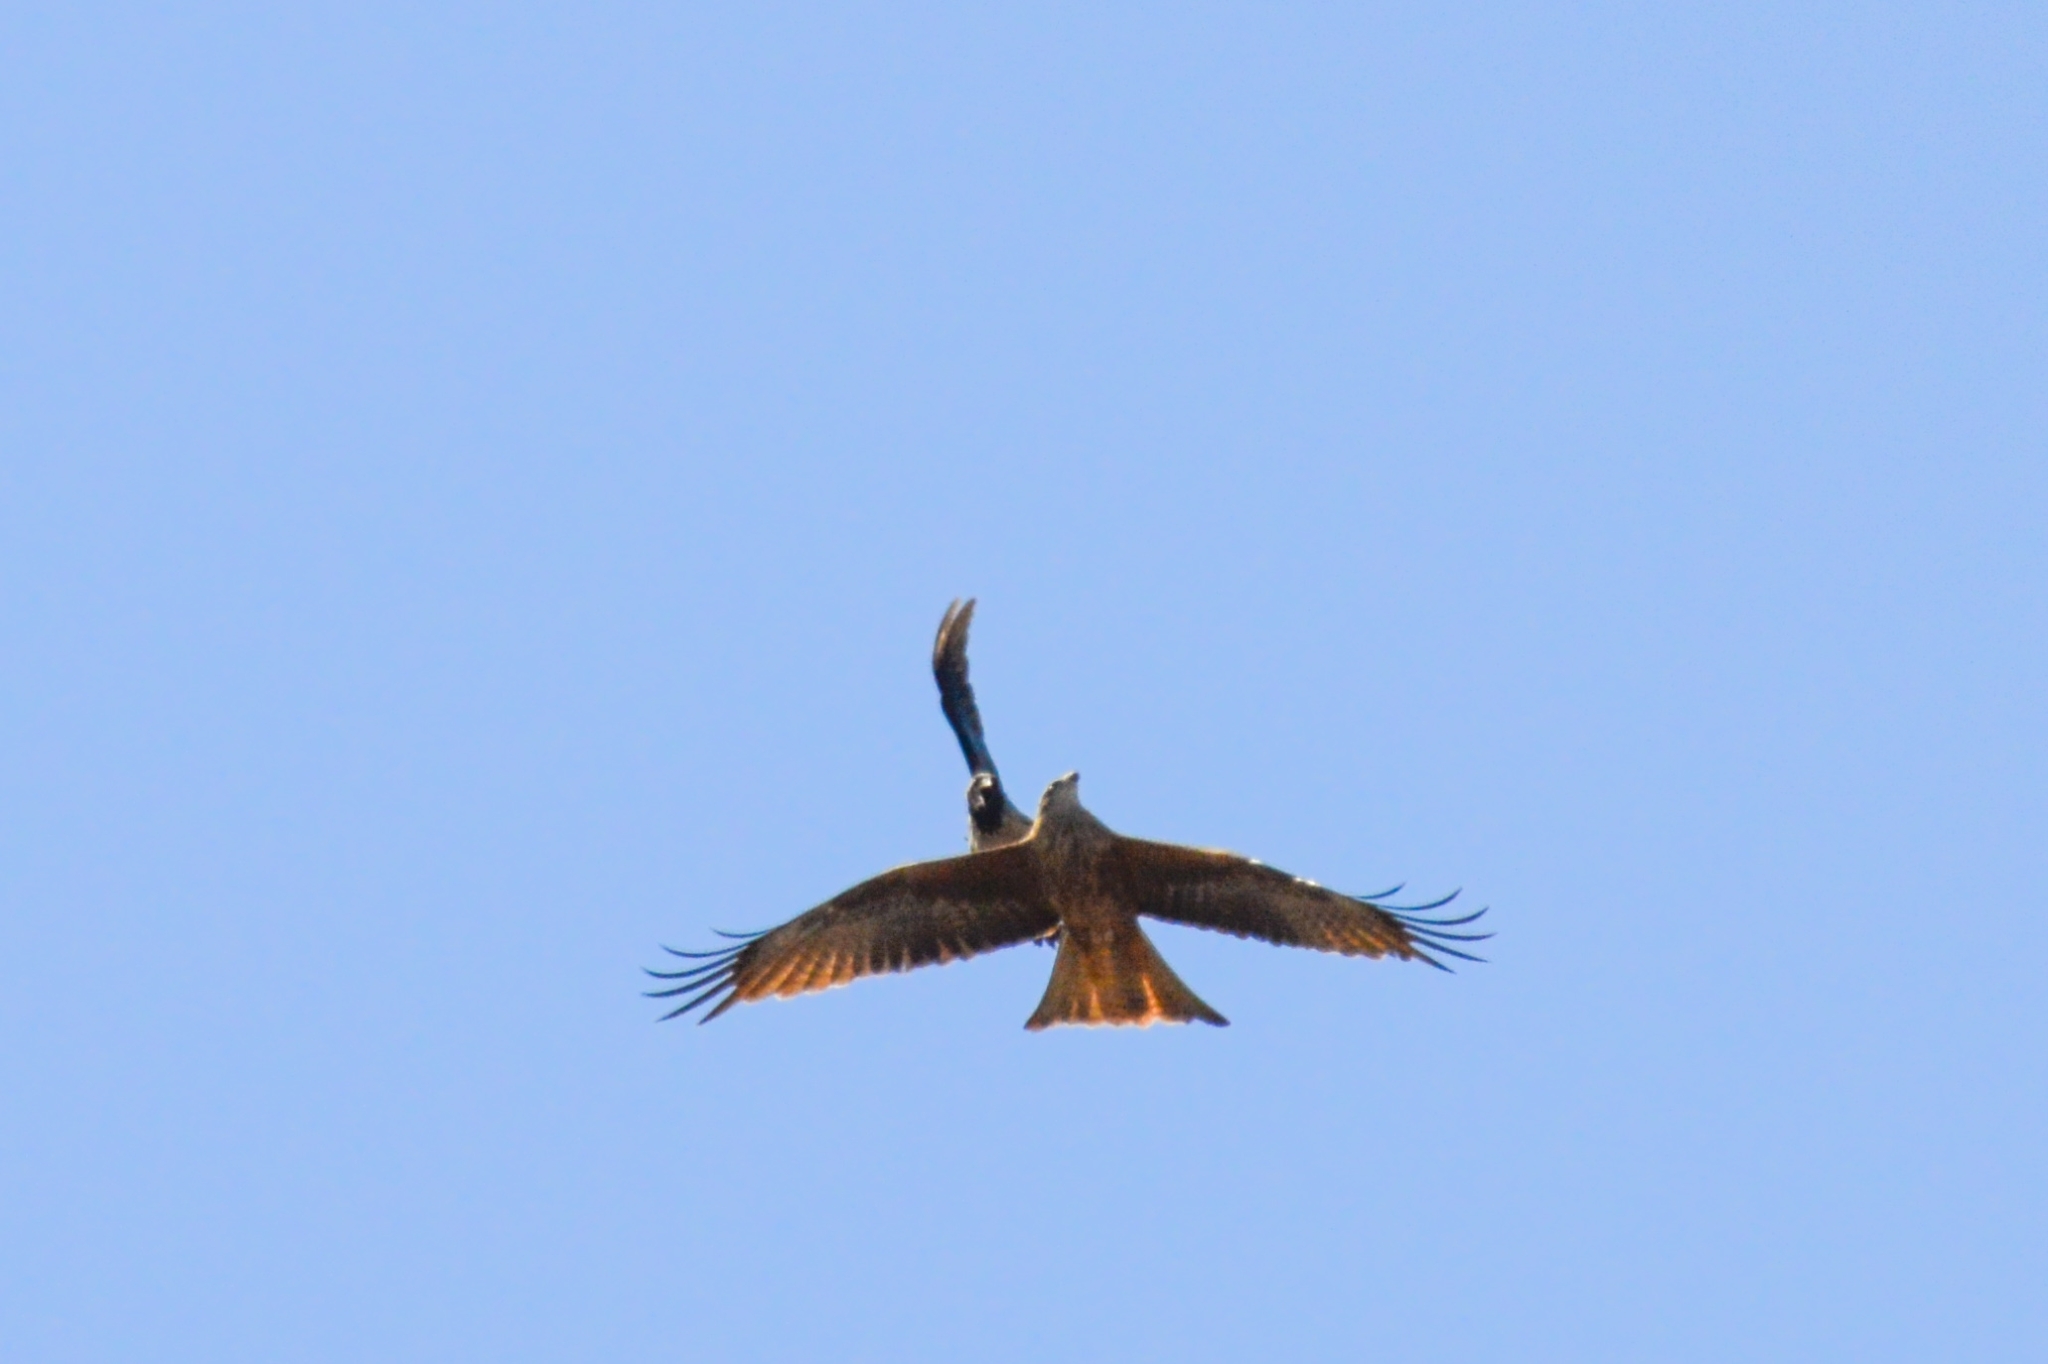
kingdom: Animalia
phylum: Chordata
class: Aves
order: Accipitriformes
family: Accipitridae
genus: Milvus
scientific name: Milvus migrans
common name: Black kite
